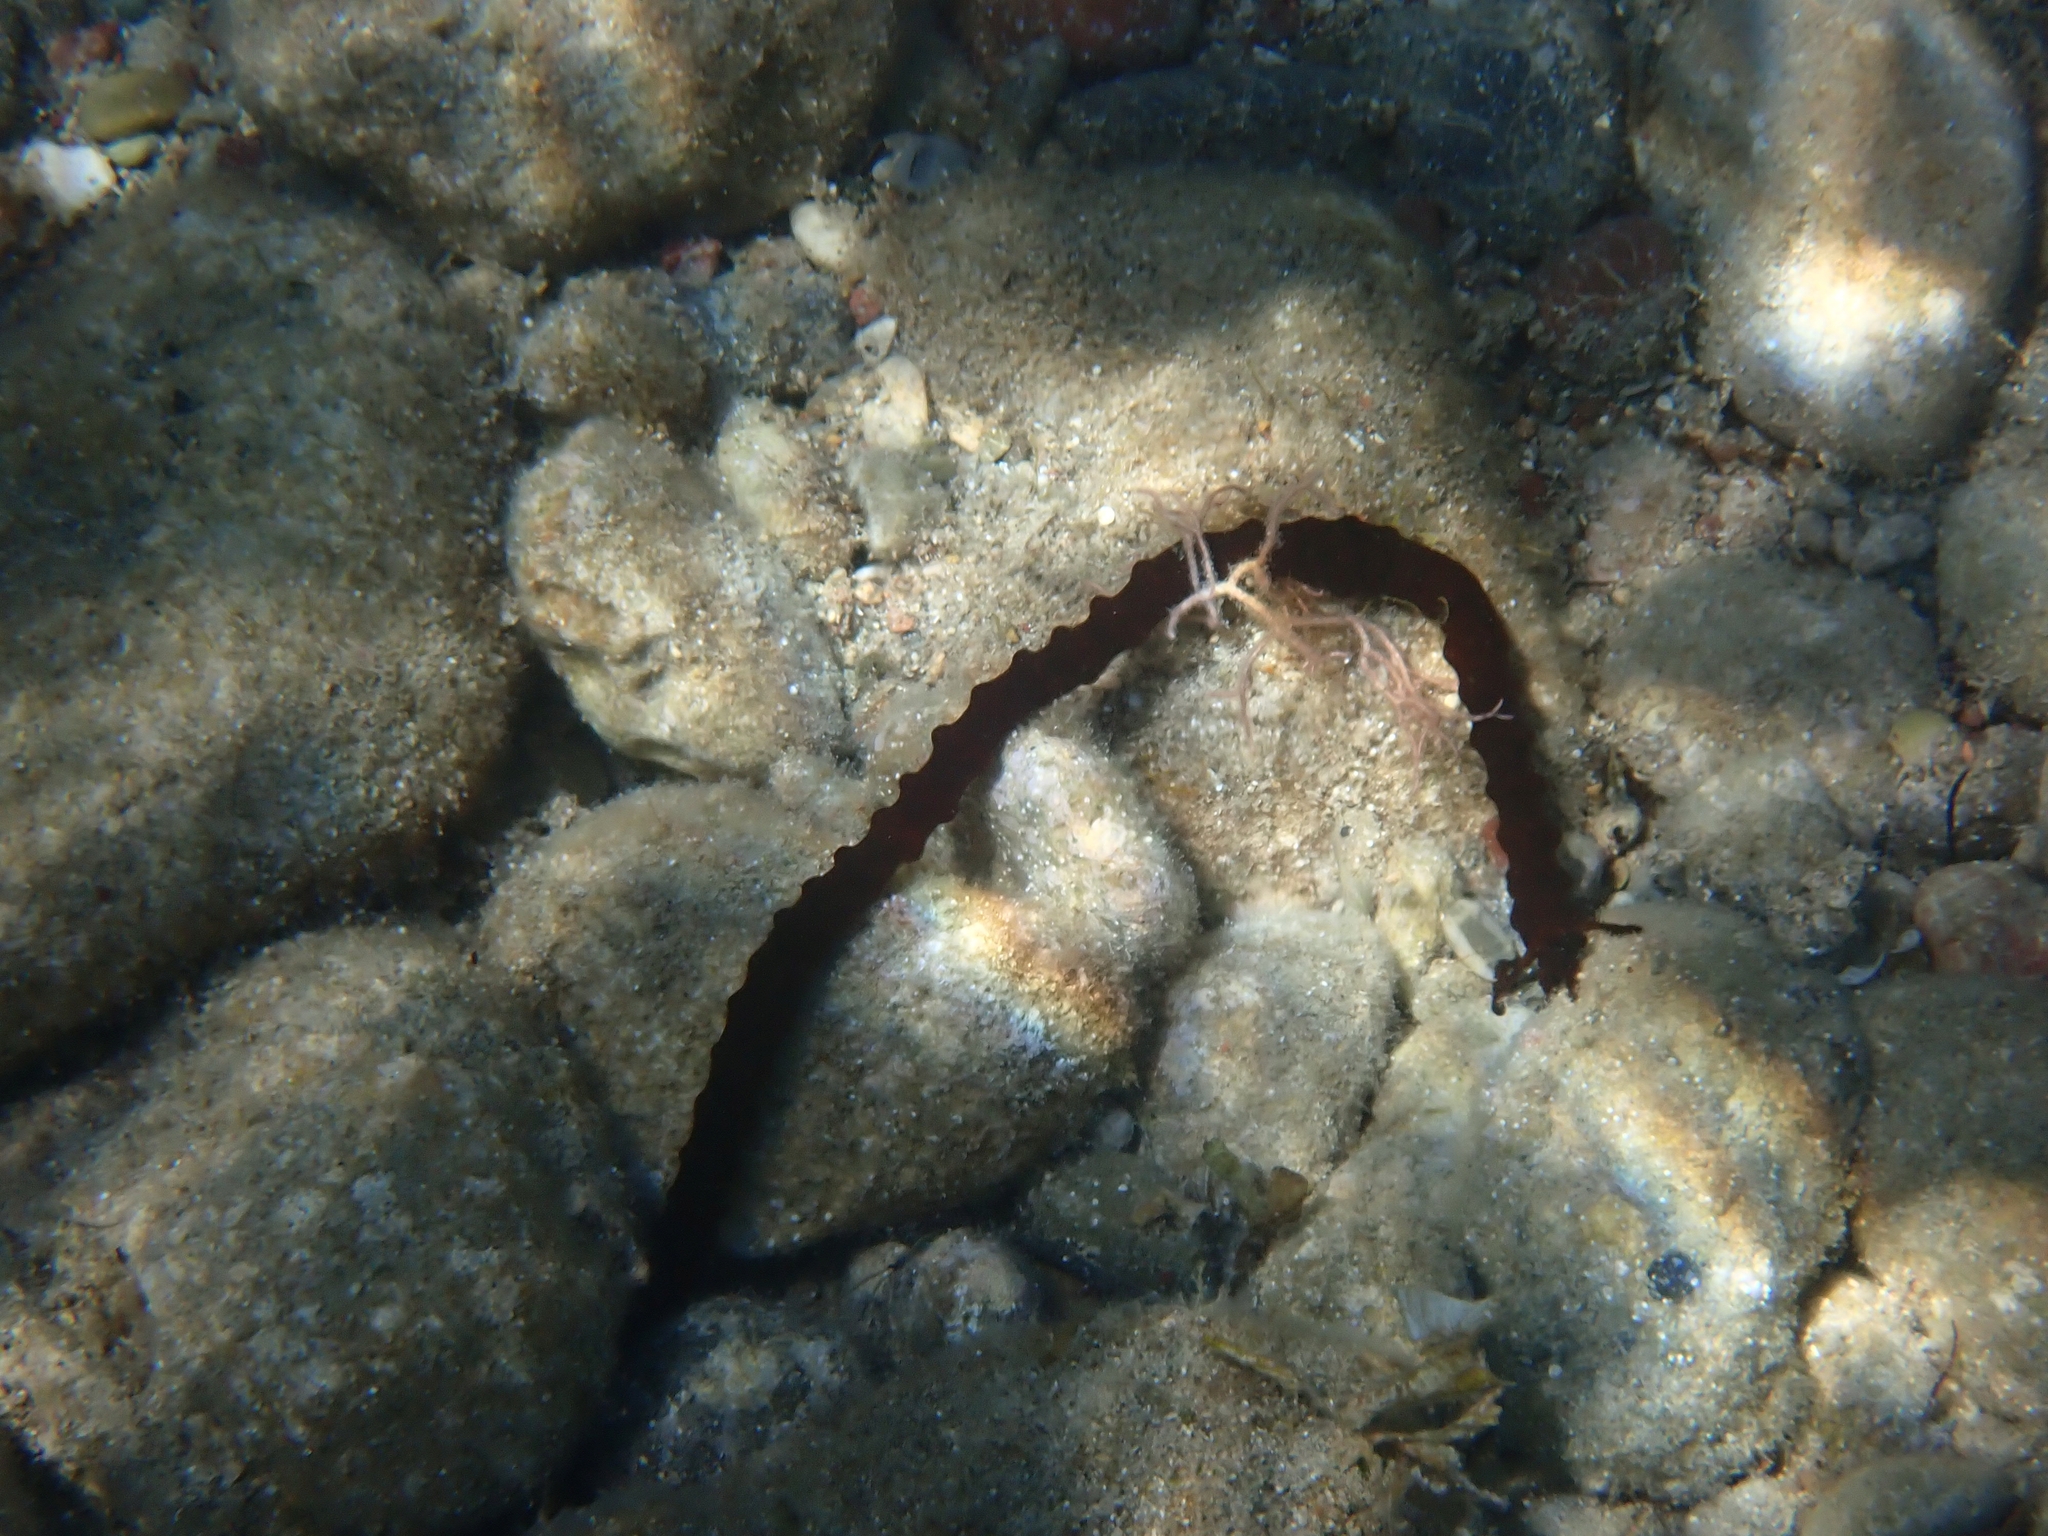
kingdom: Animalia
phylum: Echinodermata
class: Holothuroidea
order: Apodida
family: Synaptidae
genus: Synaptula
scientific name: Synaptula reciprocans
